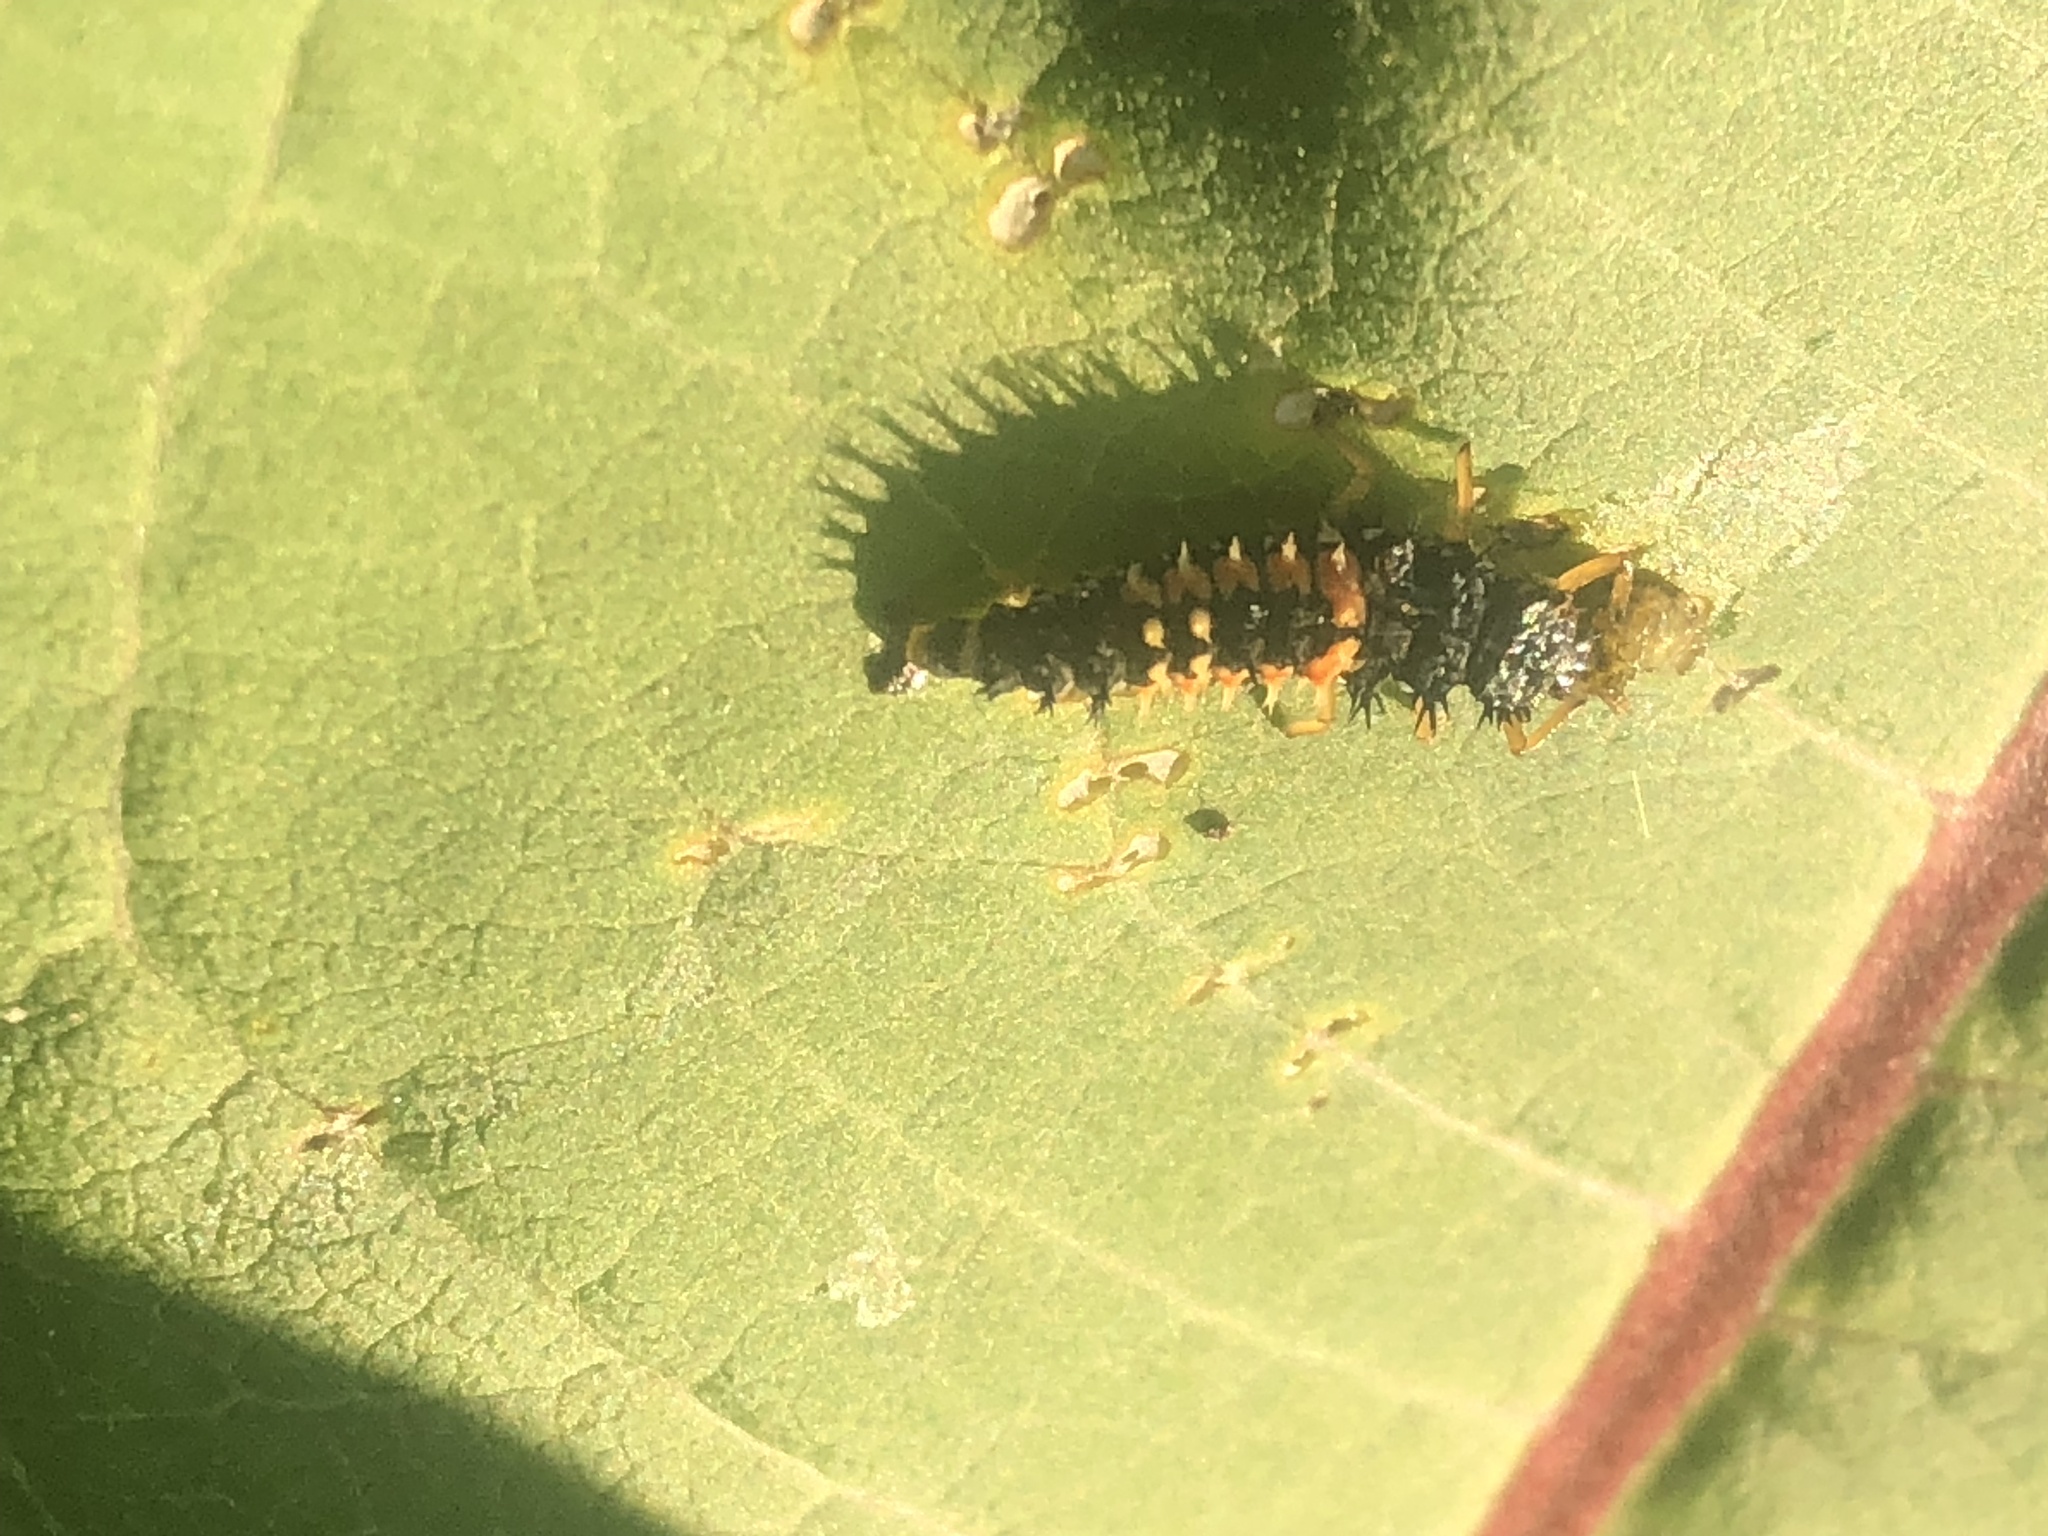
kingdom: Animalia
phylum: Arthropoda
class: Insecta
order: Coleoptera
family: Coccinellidae
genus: Harmonia
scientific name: Harmonia axyridis
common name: Harlequin ladybird
